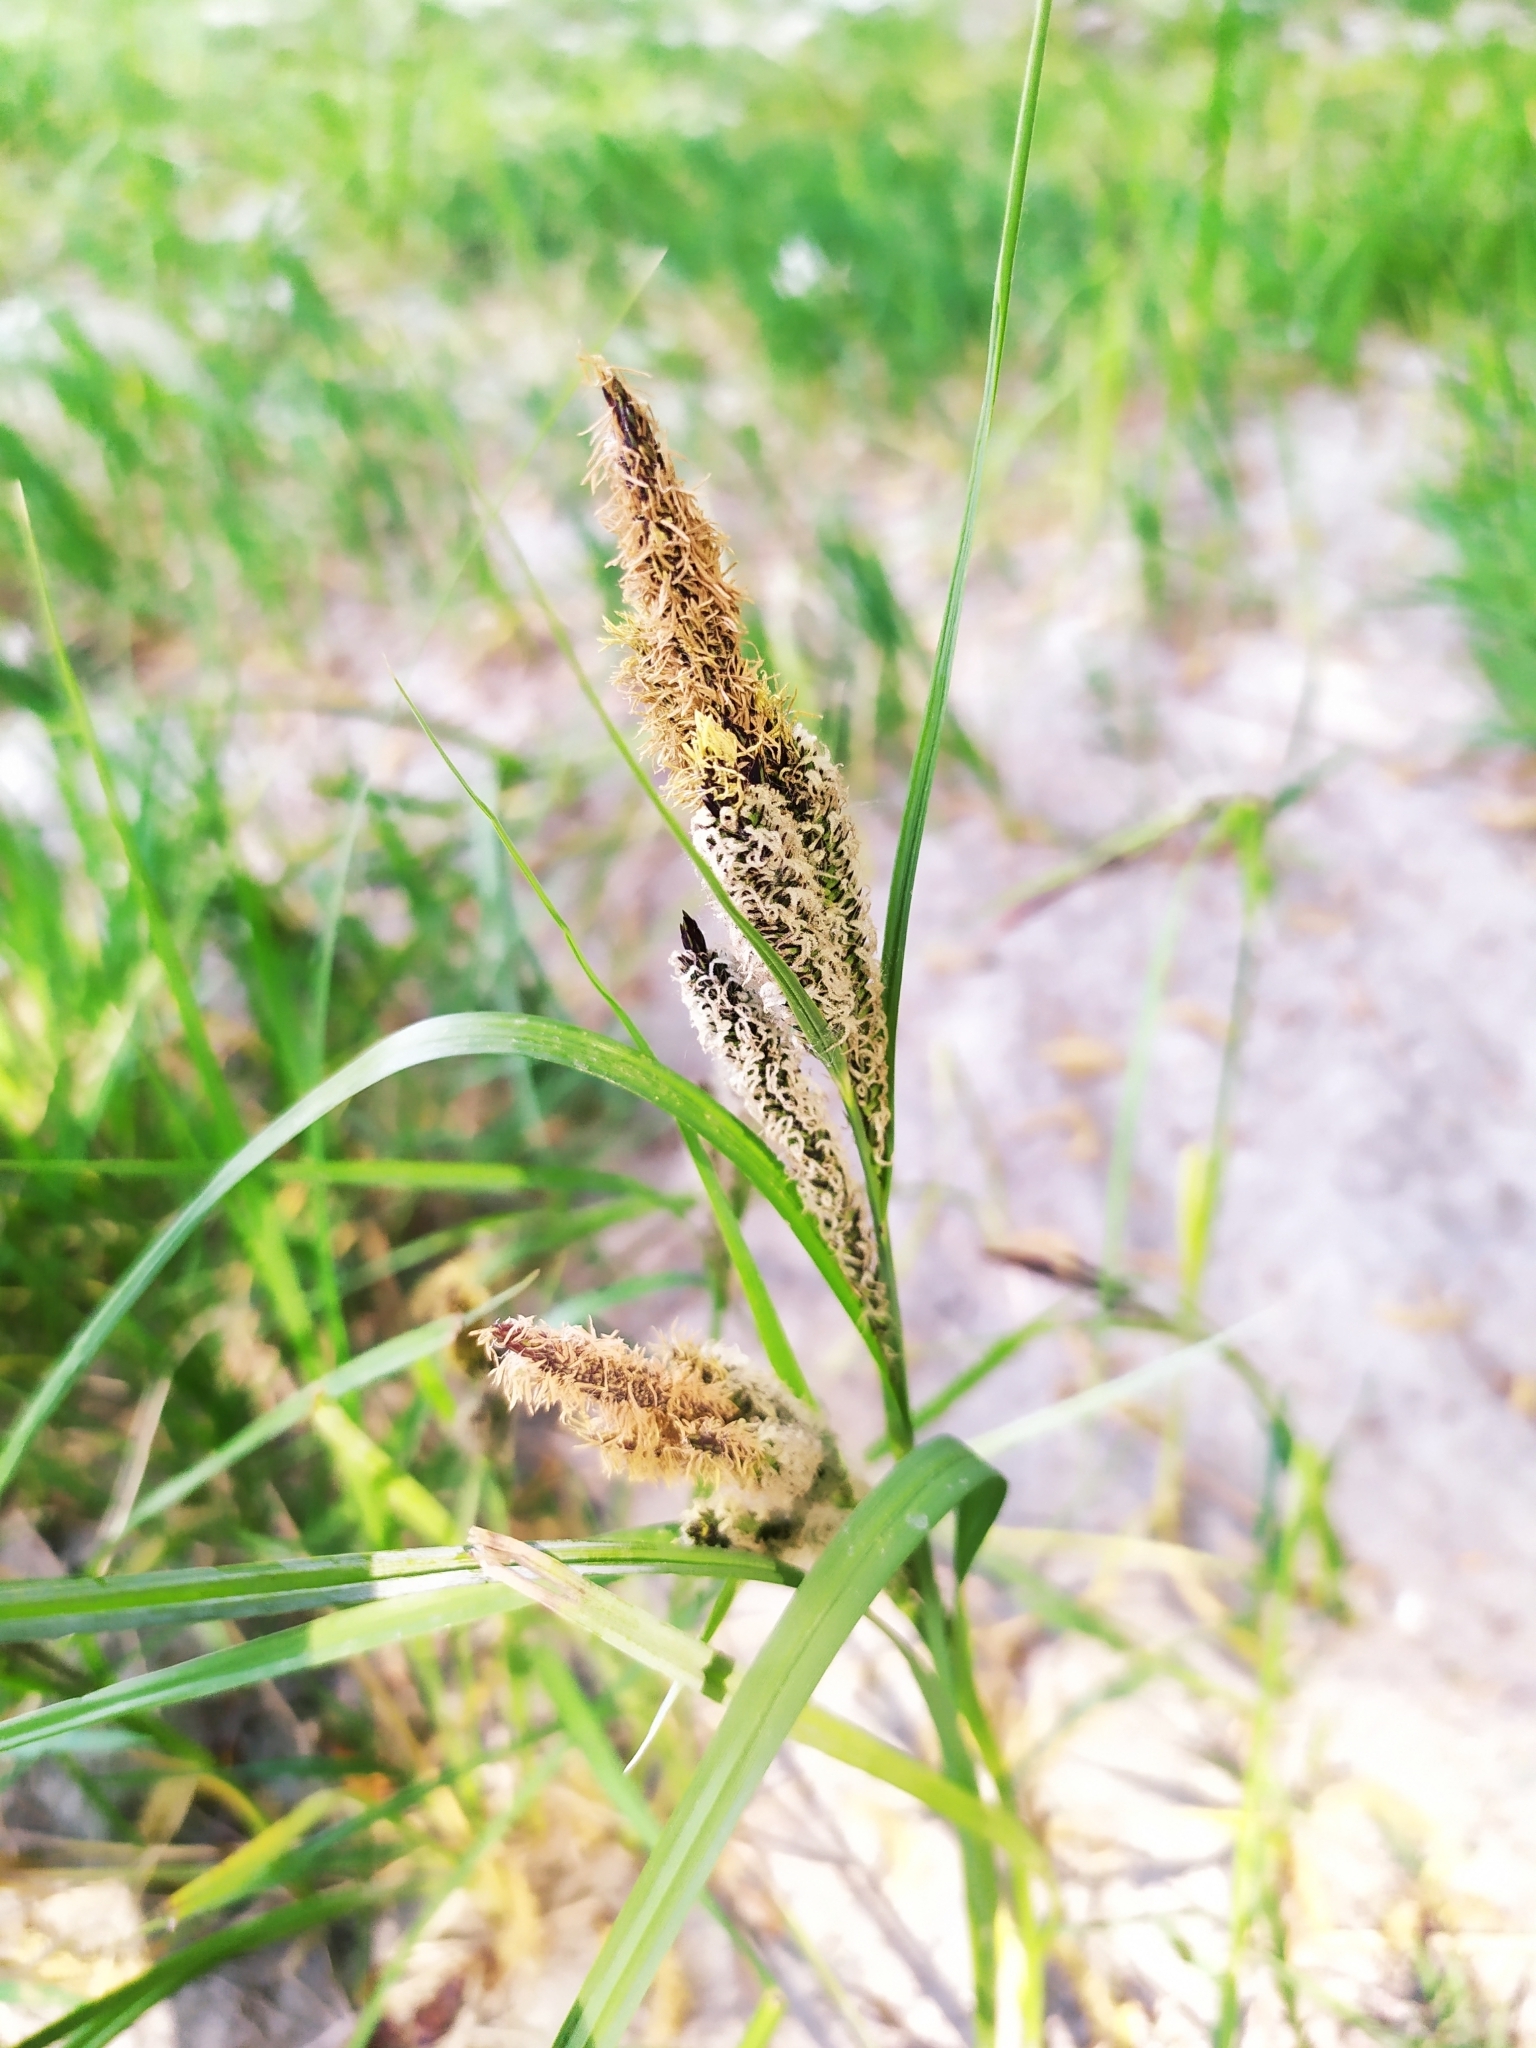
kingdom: Plantae
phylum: Tracheophyta
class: Liliopsida
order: Poales
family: Cyperaceae
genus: Carex
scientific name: Carex acutiformis
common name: Lesser pond-sedge
